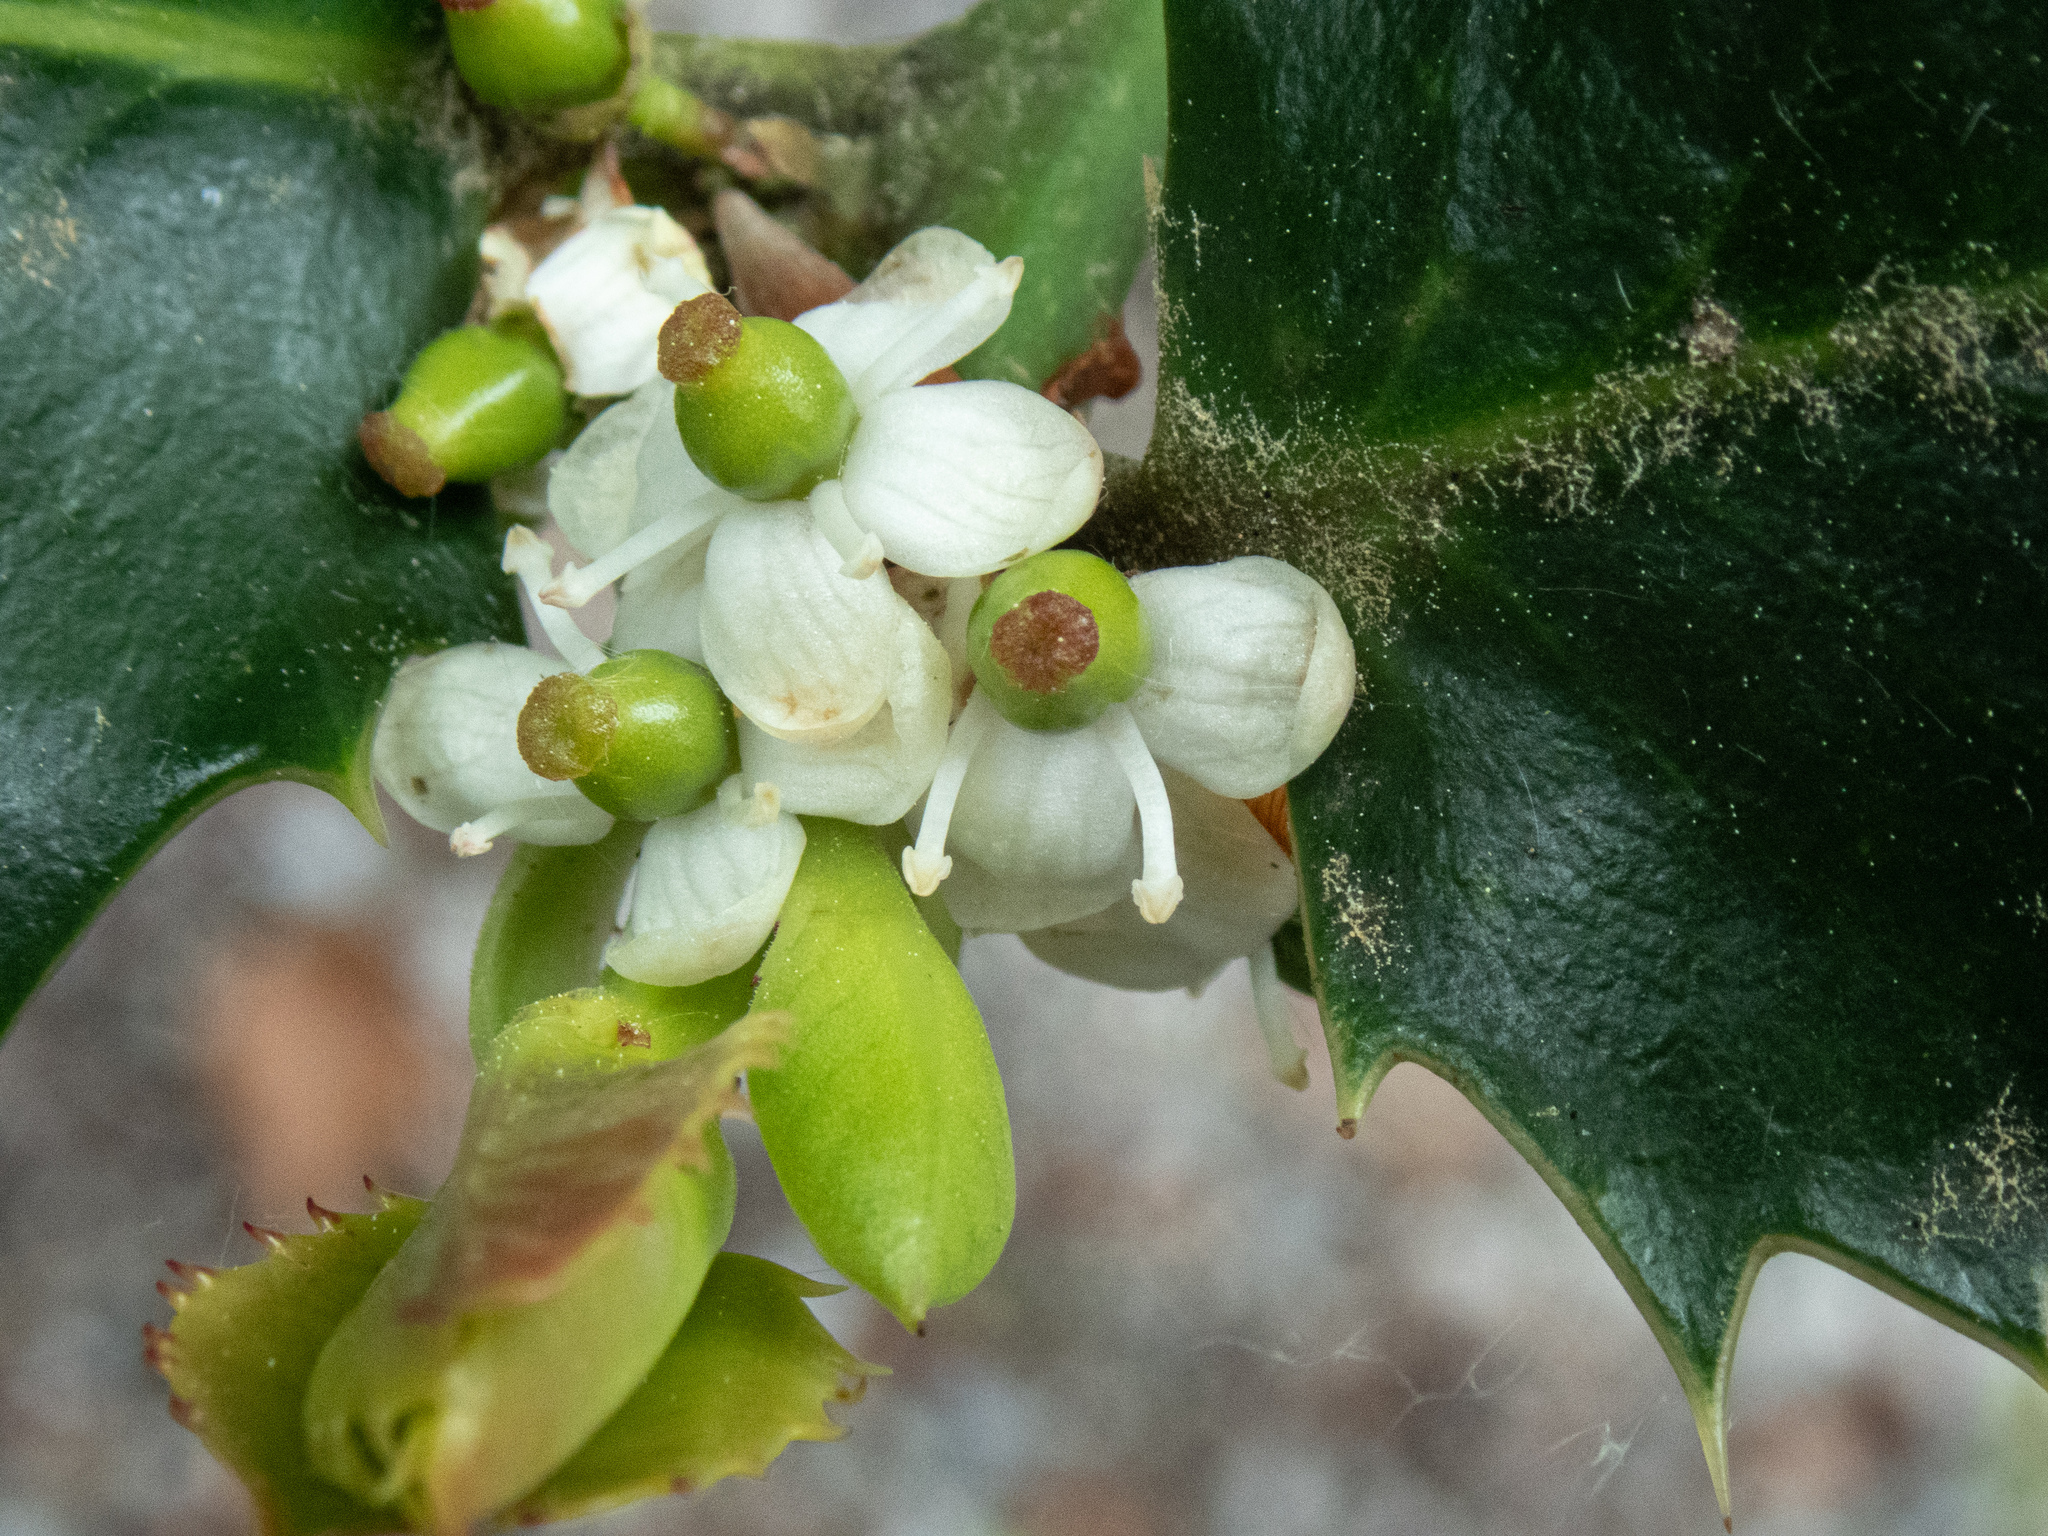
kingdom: Plantae
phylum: Tracheophyta
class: Magnoliopsida
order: Aquifoliales
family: Aquifoliaceae
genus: Ilex
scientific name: Ilex aquifolium
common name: English holly
